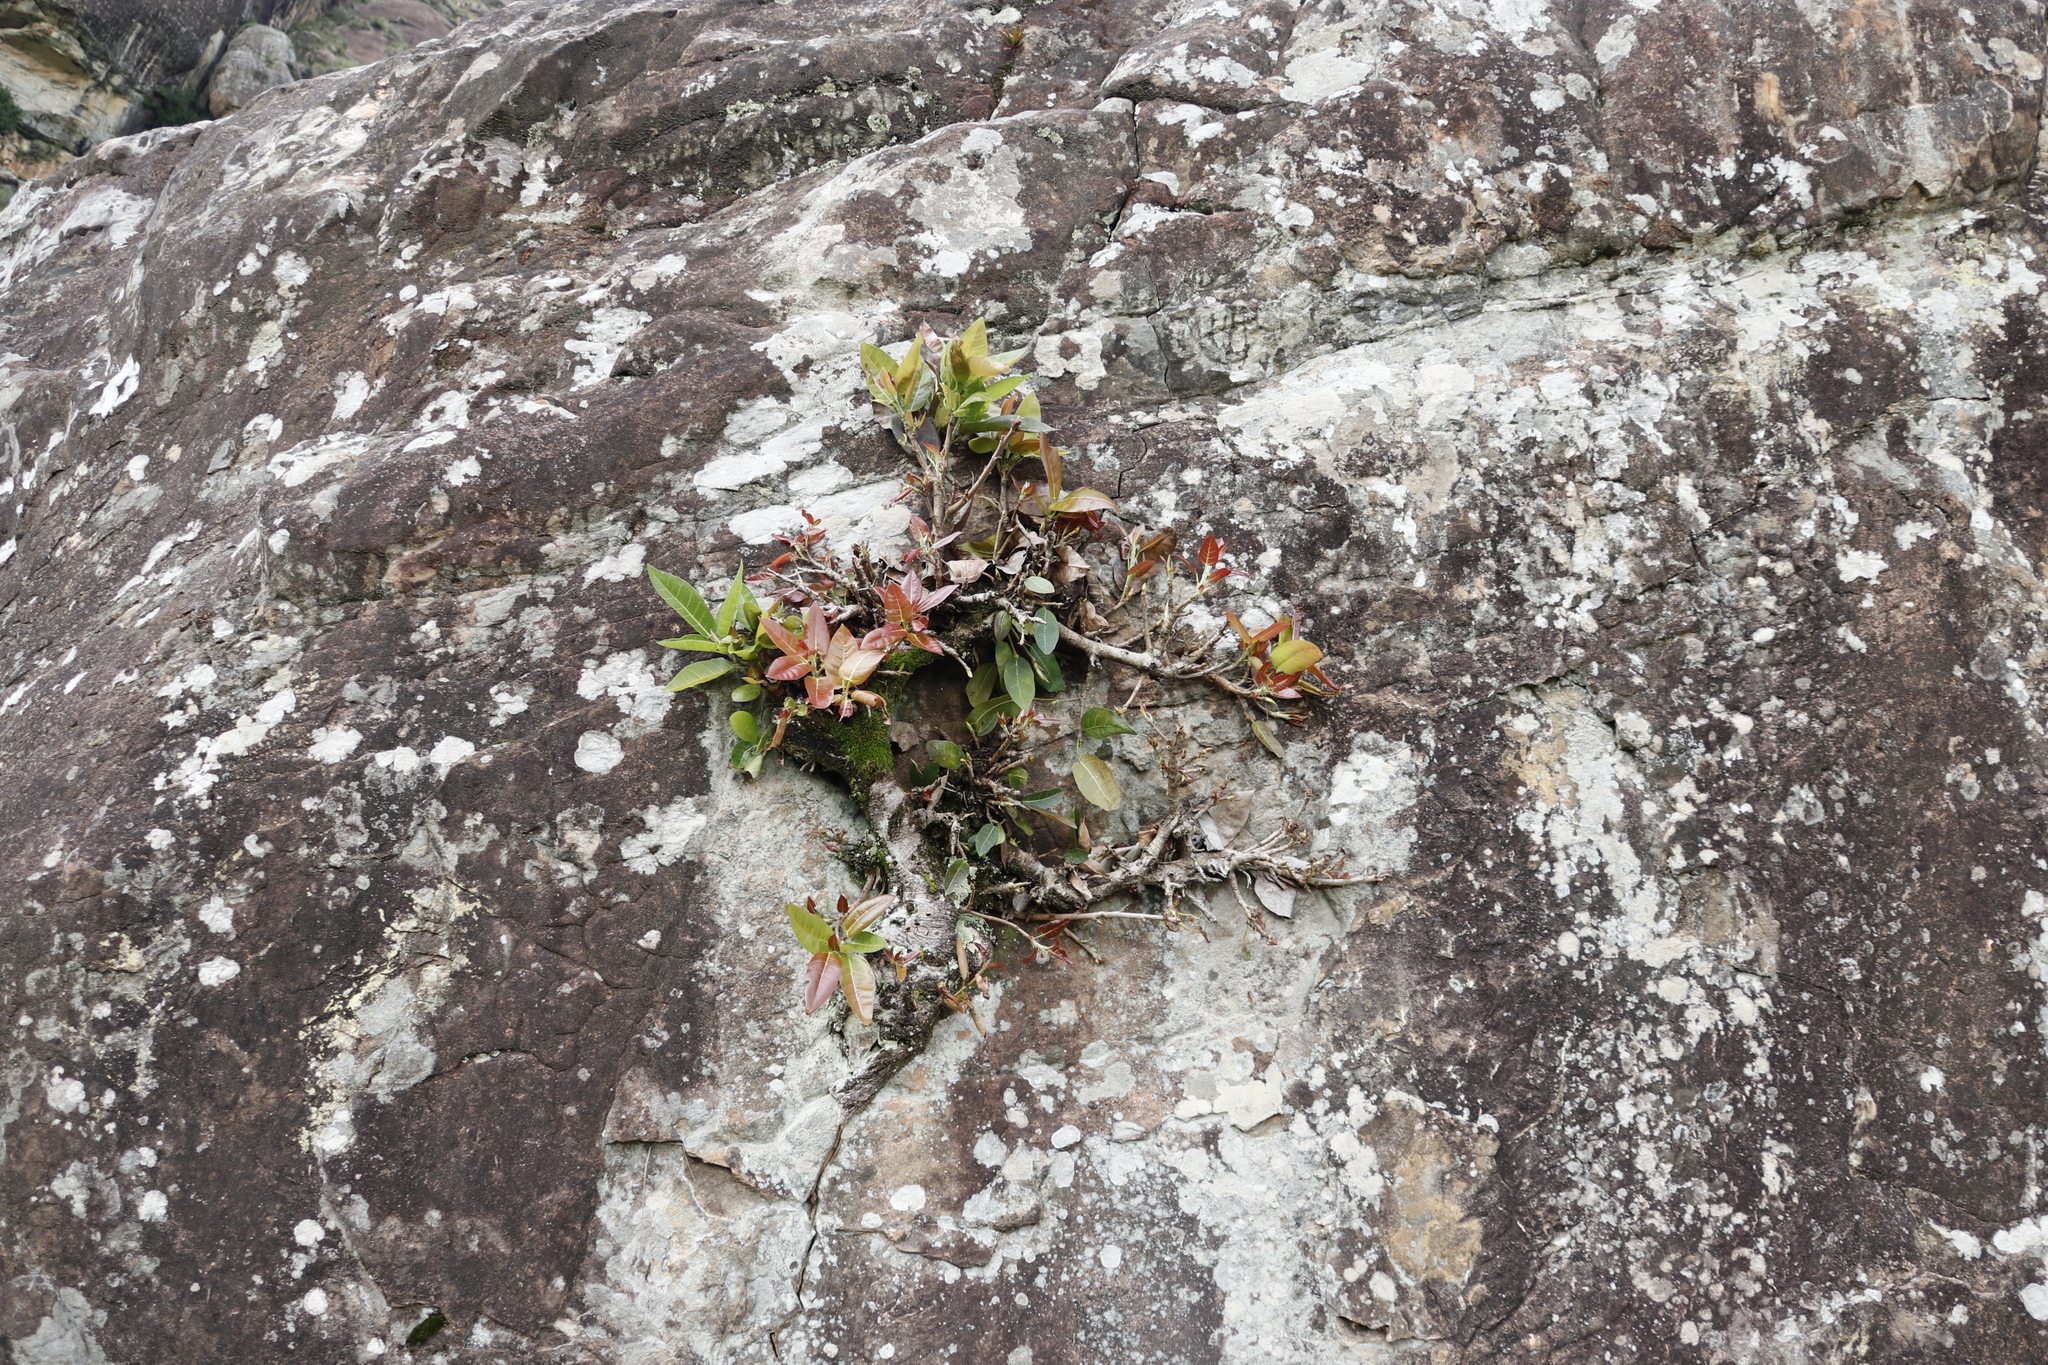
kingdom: Plantae
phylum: Tracheophyta
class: Magnoliopsida
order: Rosales
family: Moraceae
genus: Ficus
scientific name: Ficus ingens
